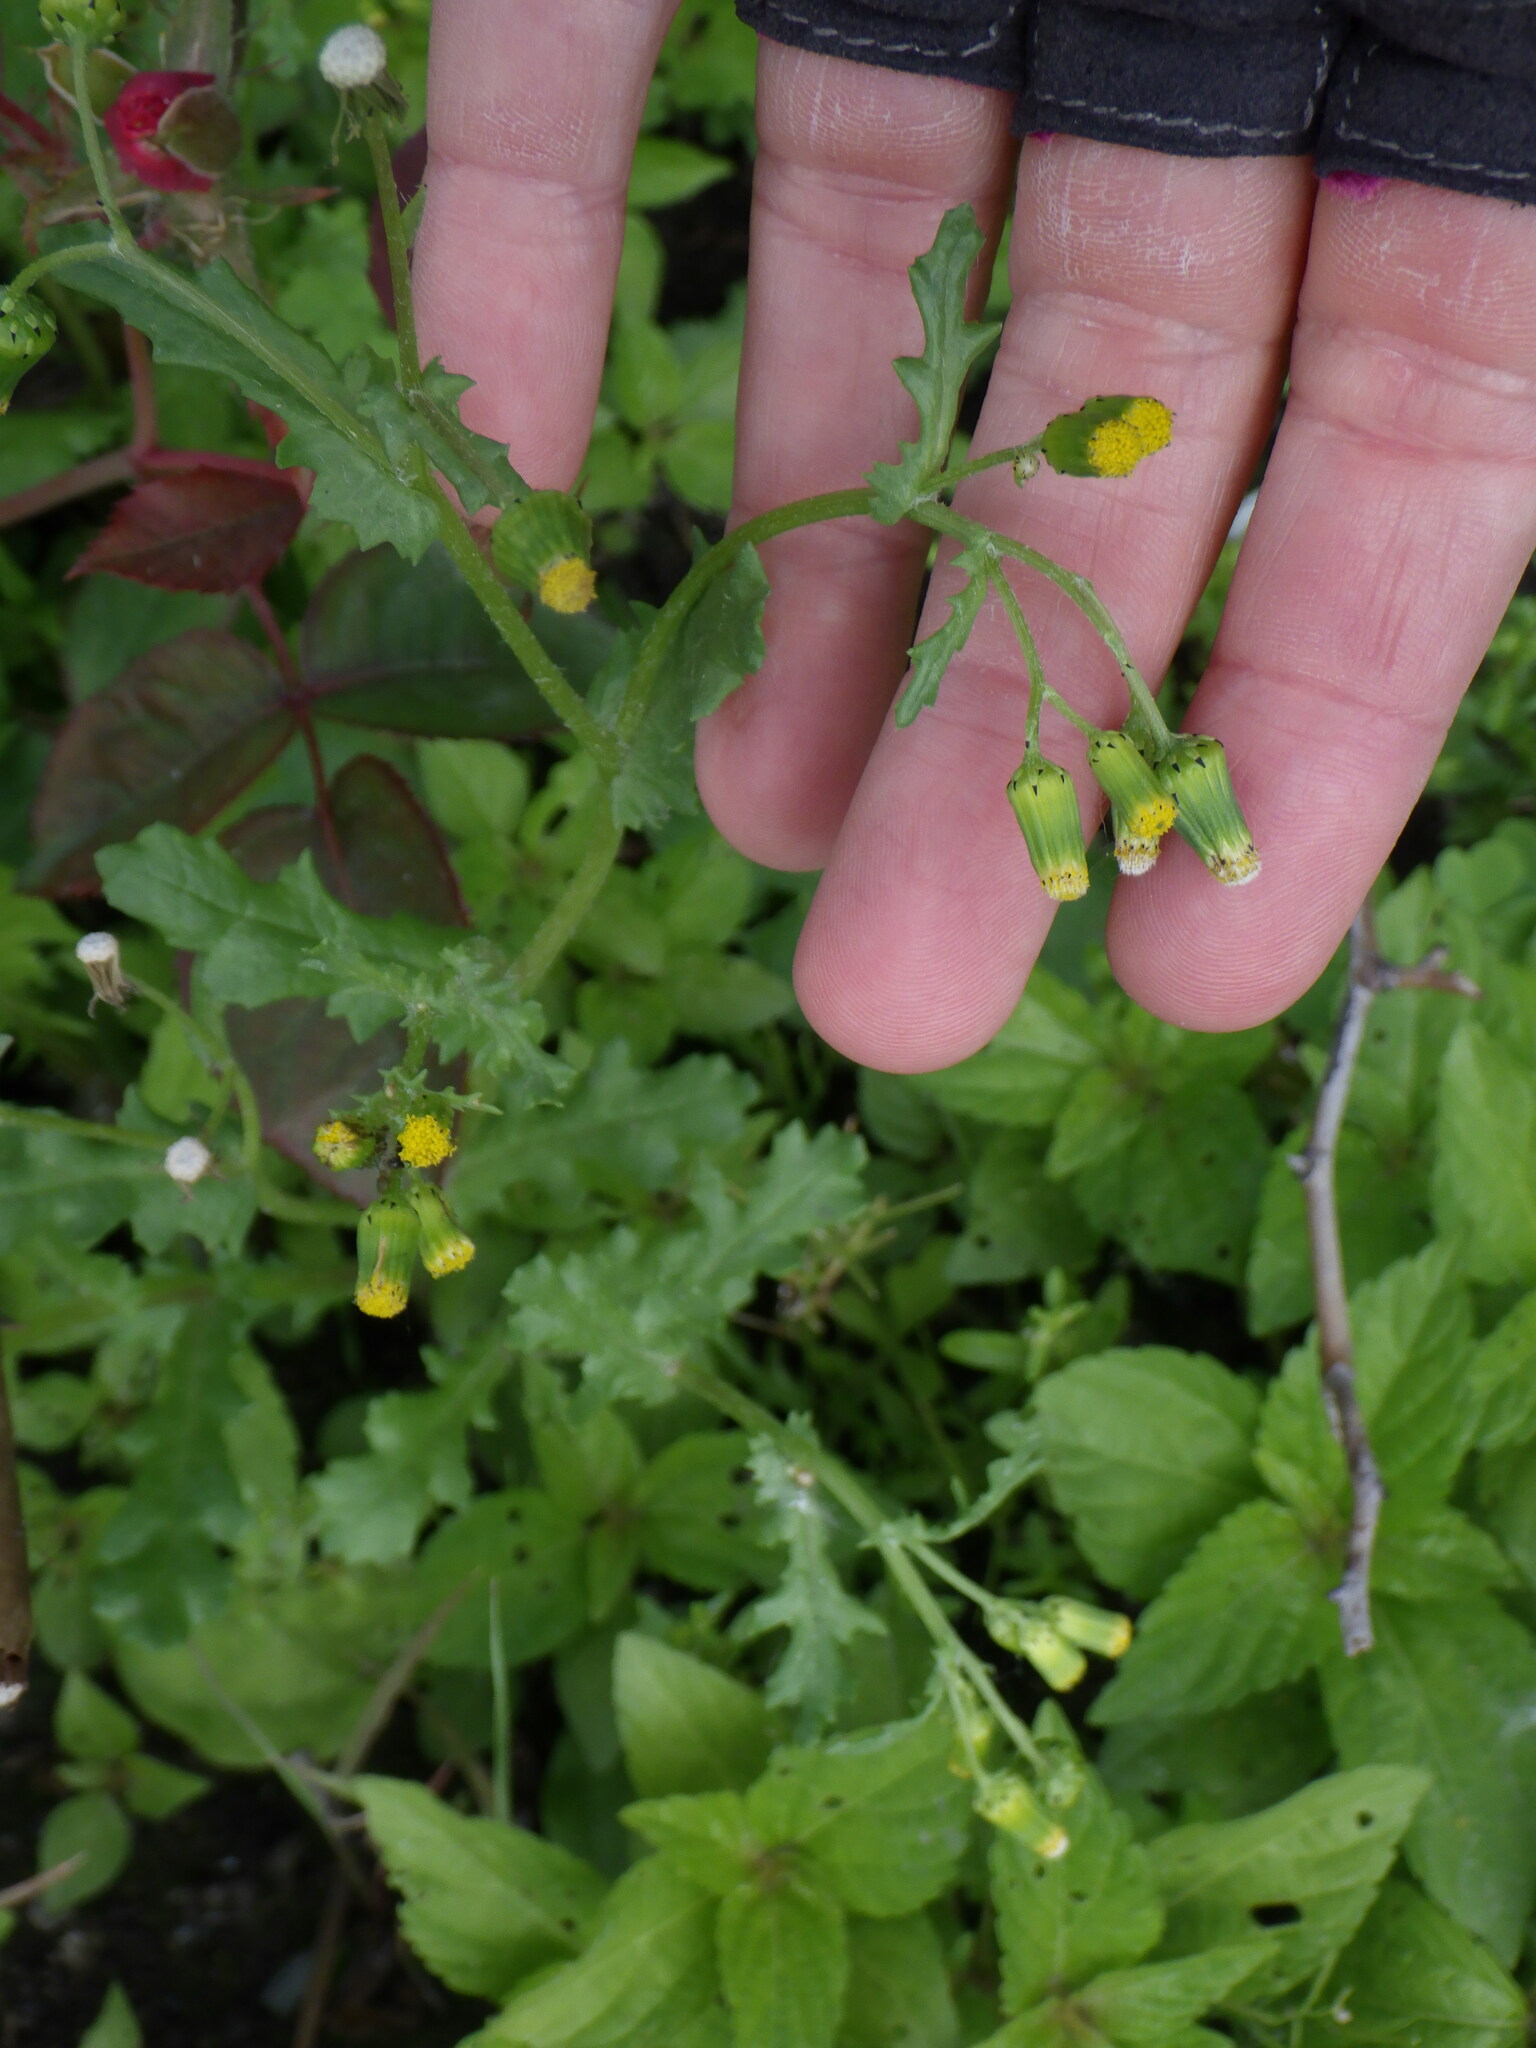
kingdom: Plantae
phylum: Tracheophyta
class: Magnoliopsida
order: Asterales
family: Asteraceae
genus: Senecio
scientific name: Senecio vulgaris
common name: Old-man-in-the-spring
